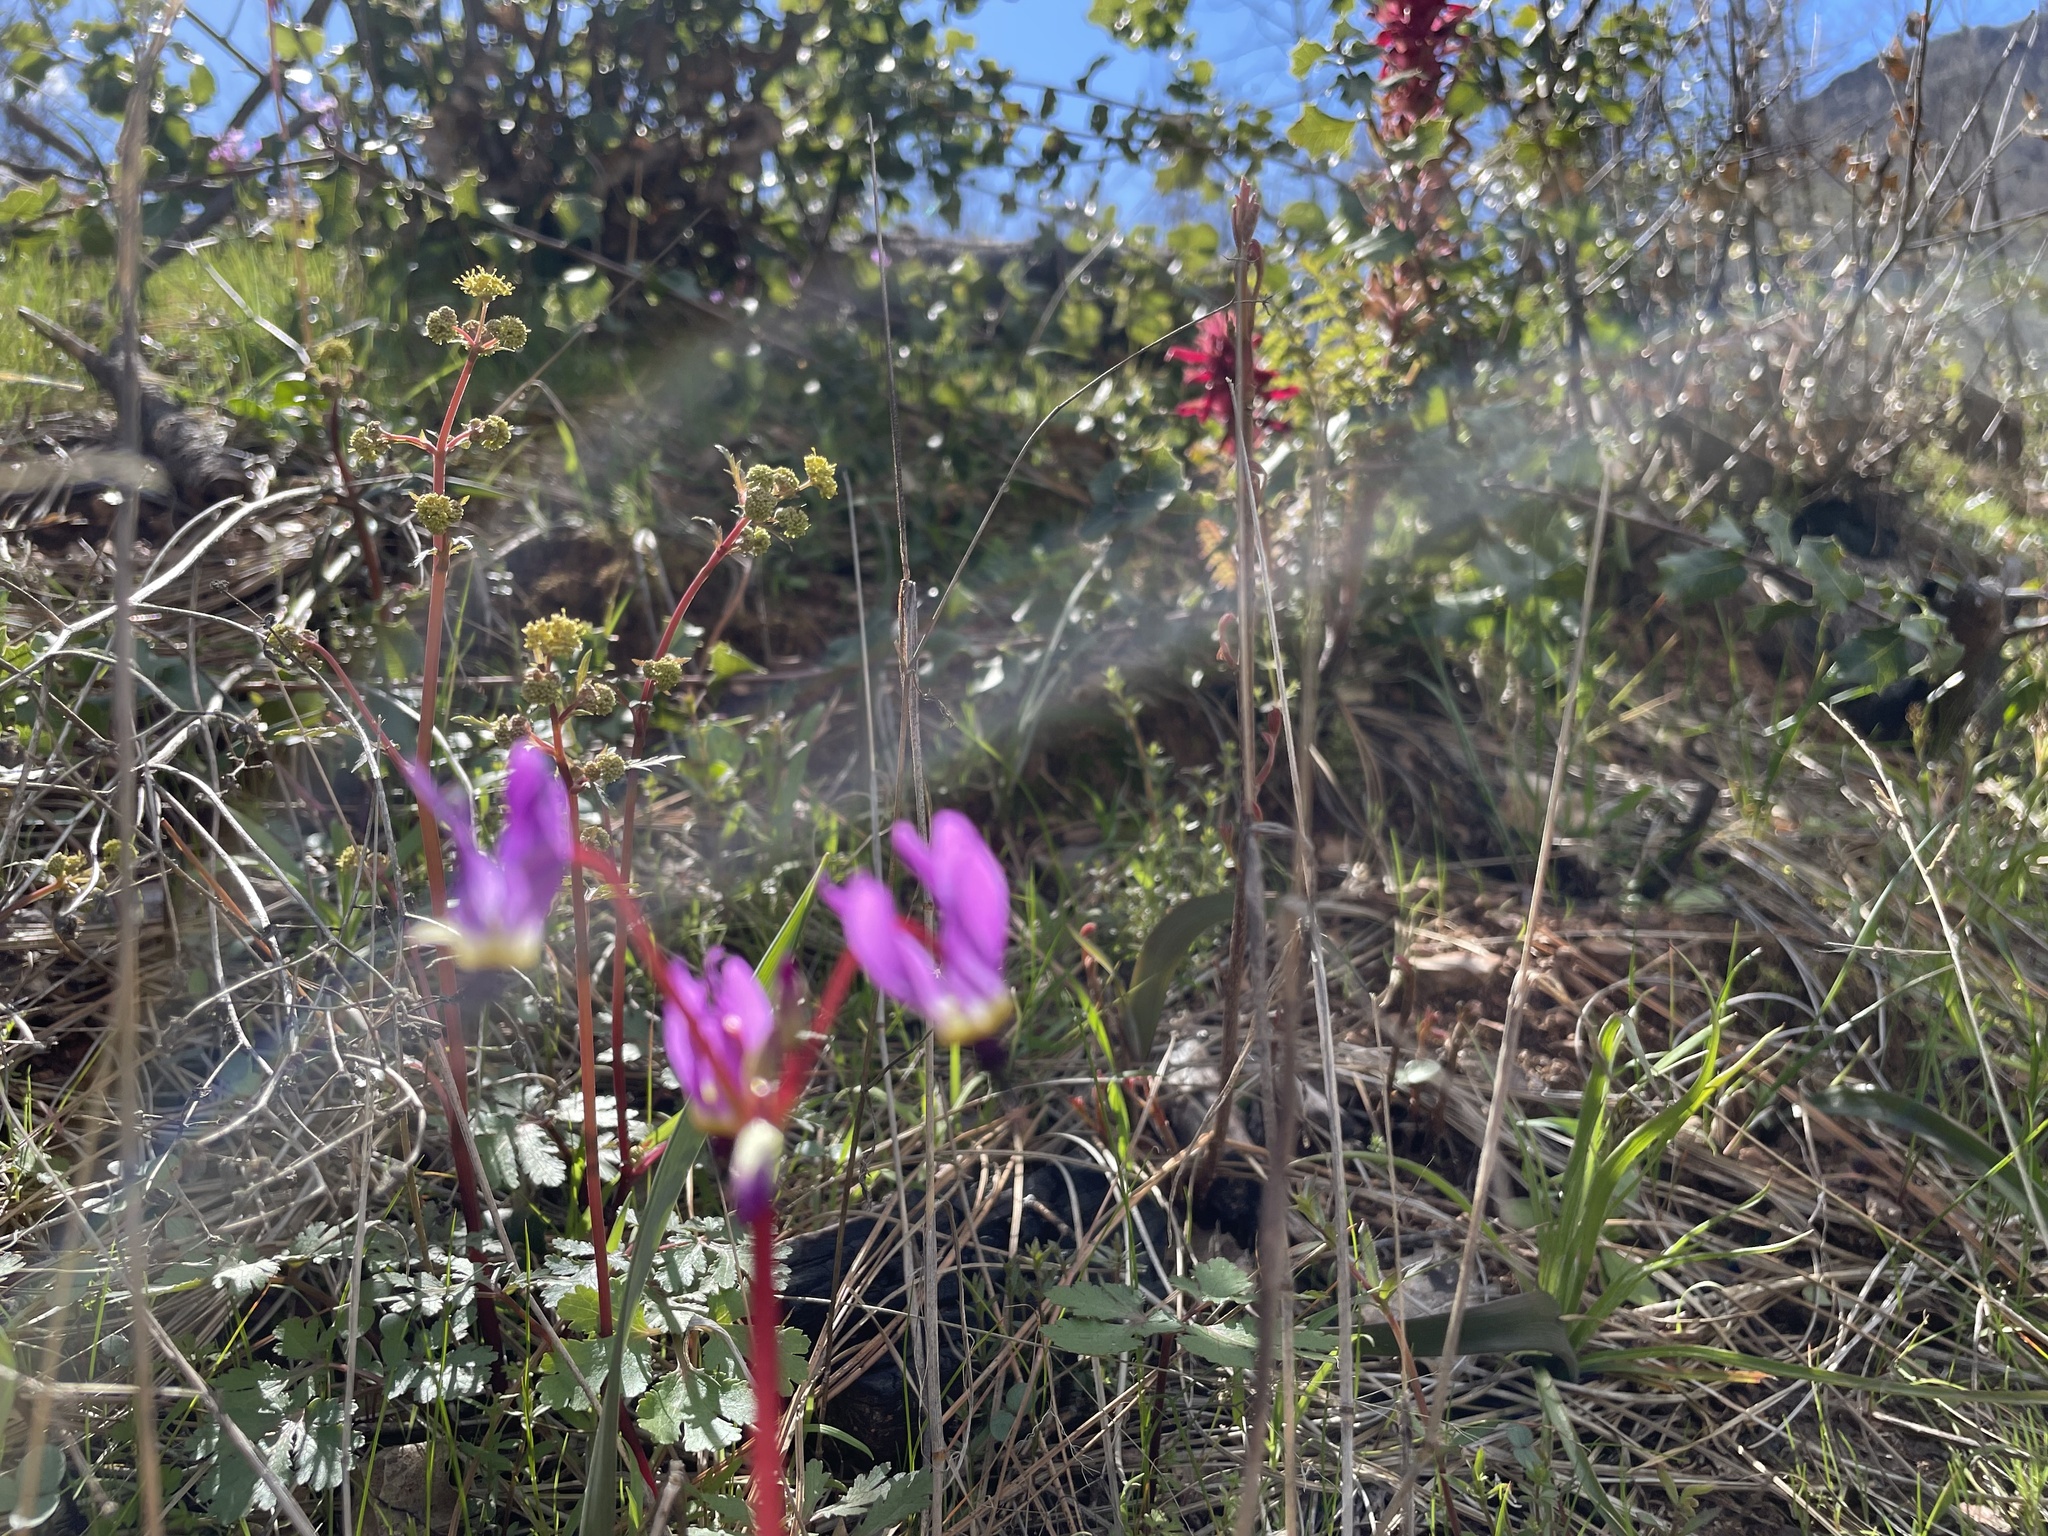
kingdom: Plantae
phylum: Tracheophyta
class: Magnoliopsida
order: Ericales
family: Primulaceae
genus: Dodecatheon
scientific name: Dodecatheon hendersonii
